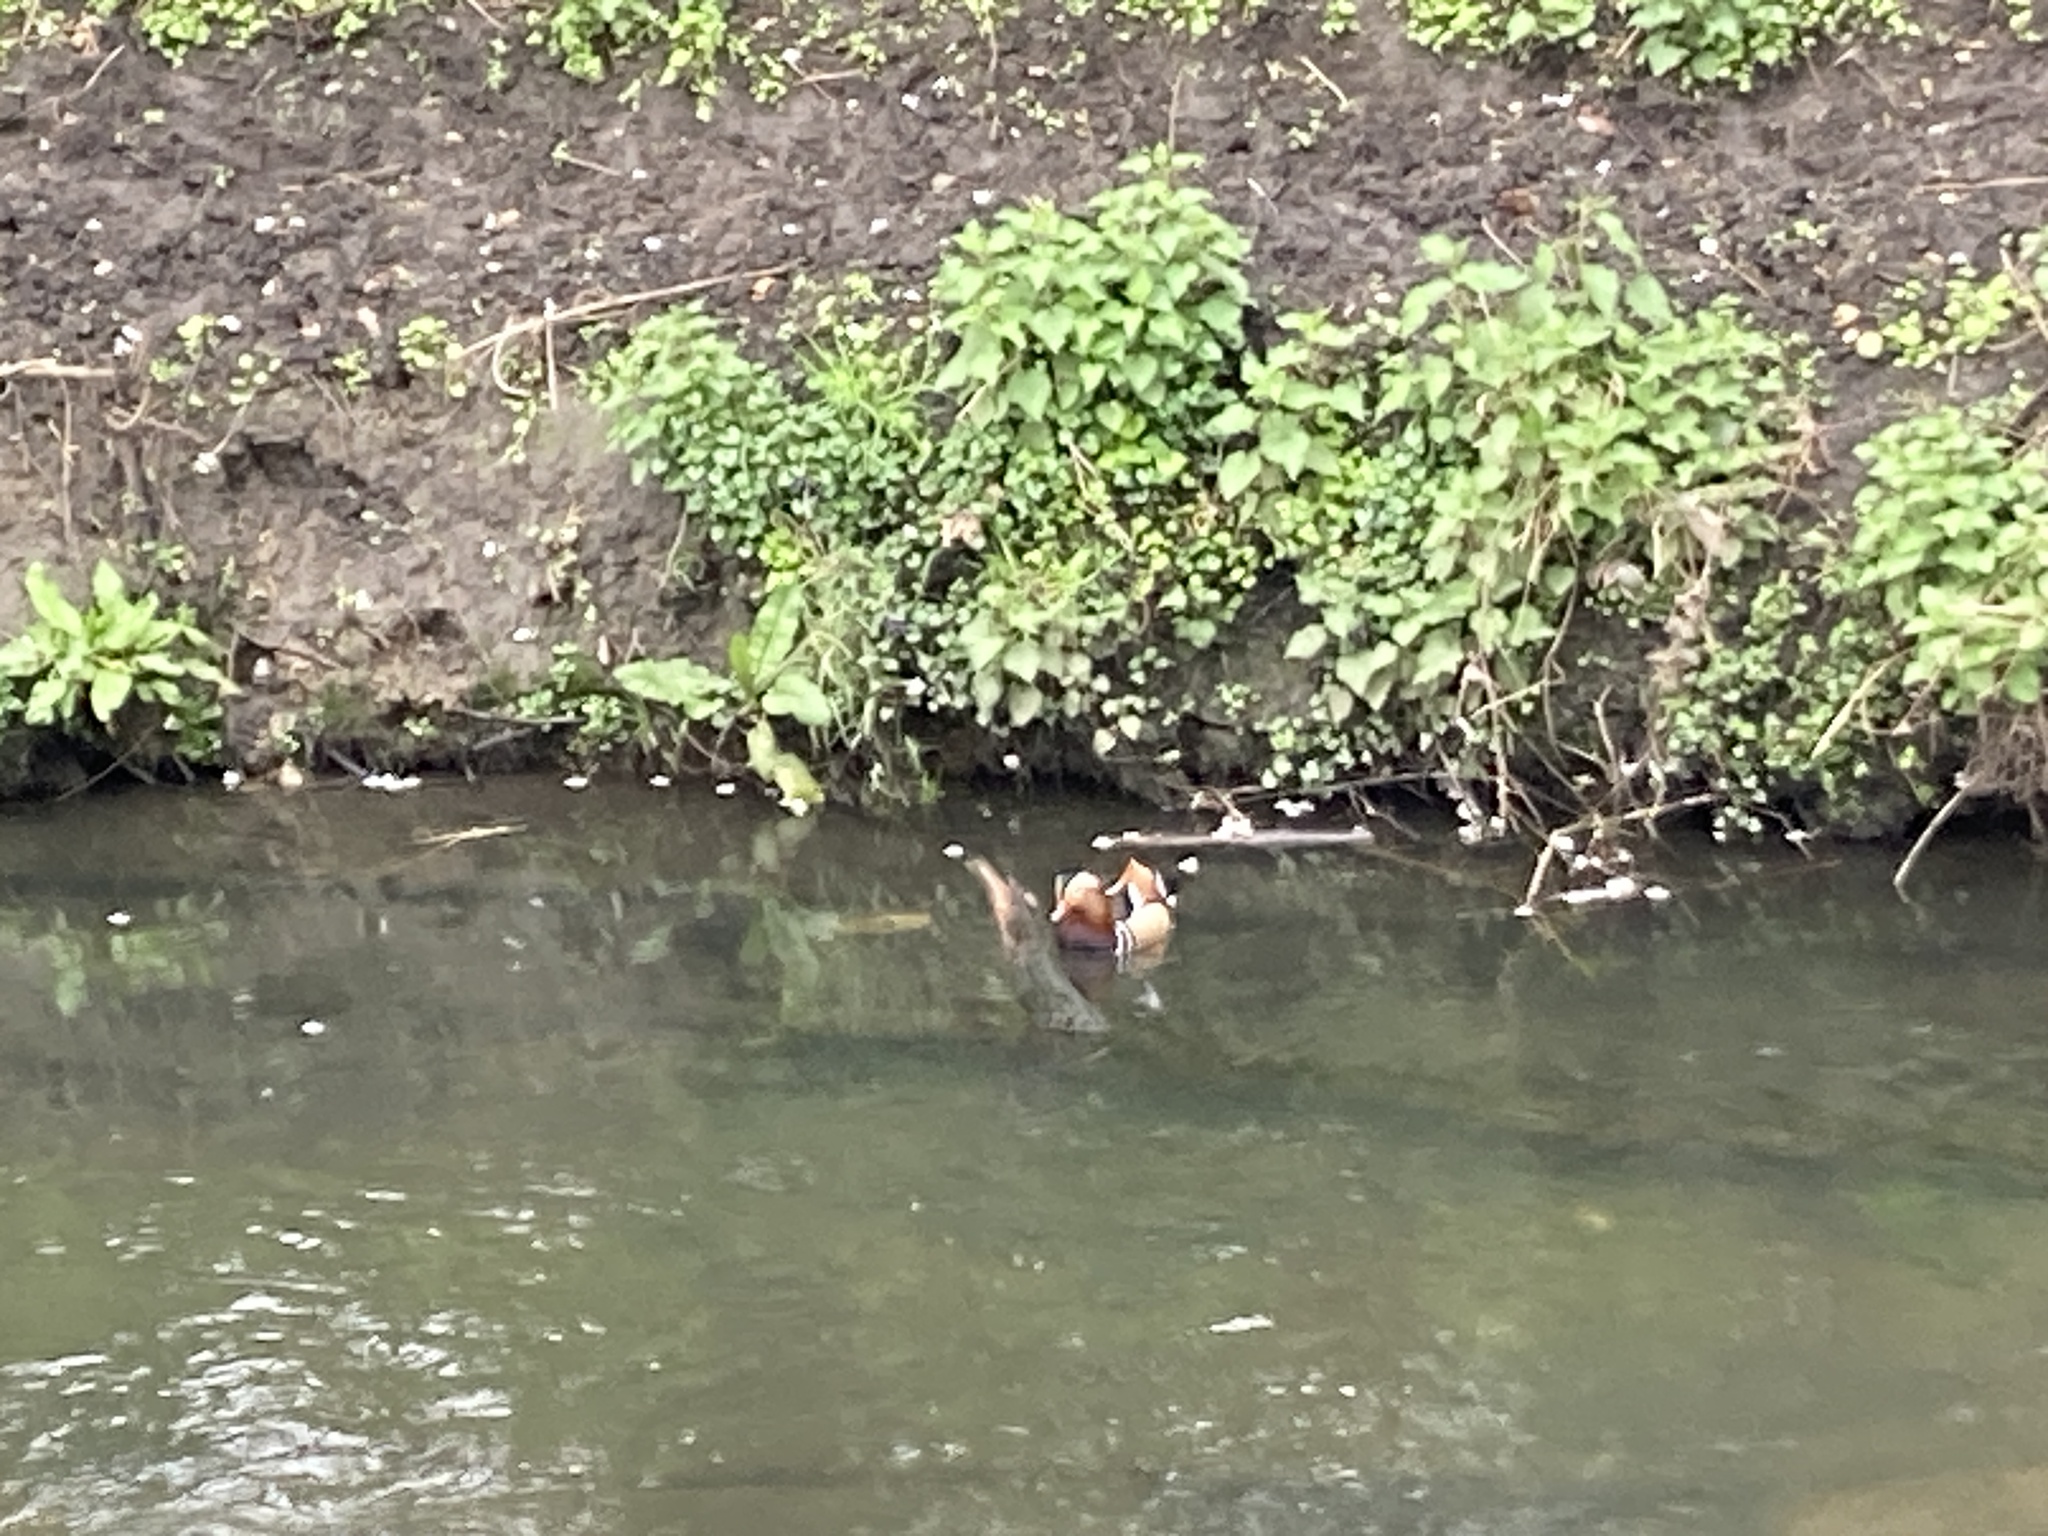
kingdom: Animalia
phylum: Chordata
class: Aves
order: Anseriformes
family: Anatidae
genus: Aix
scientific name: Aix galericulata
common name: Mandarin duck
